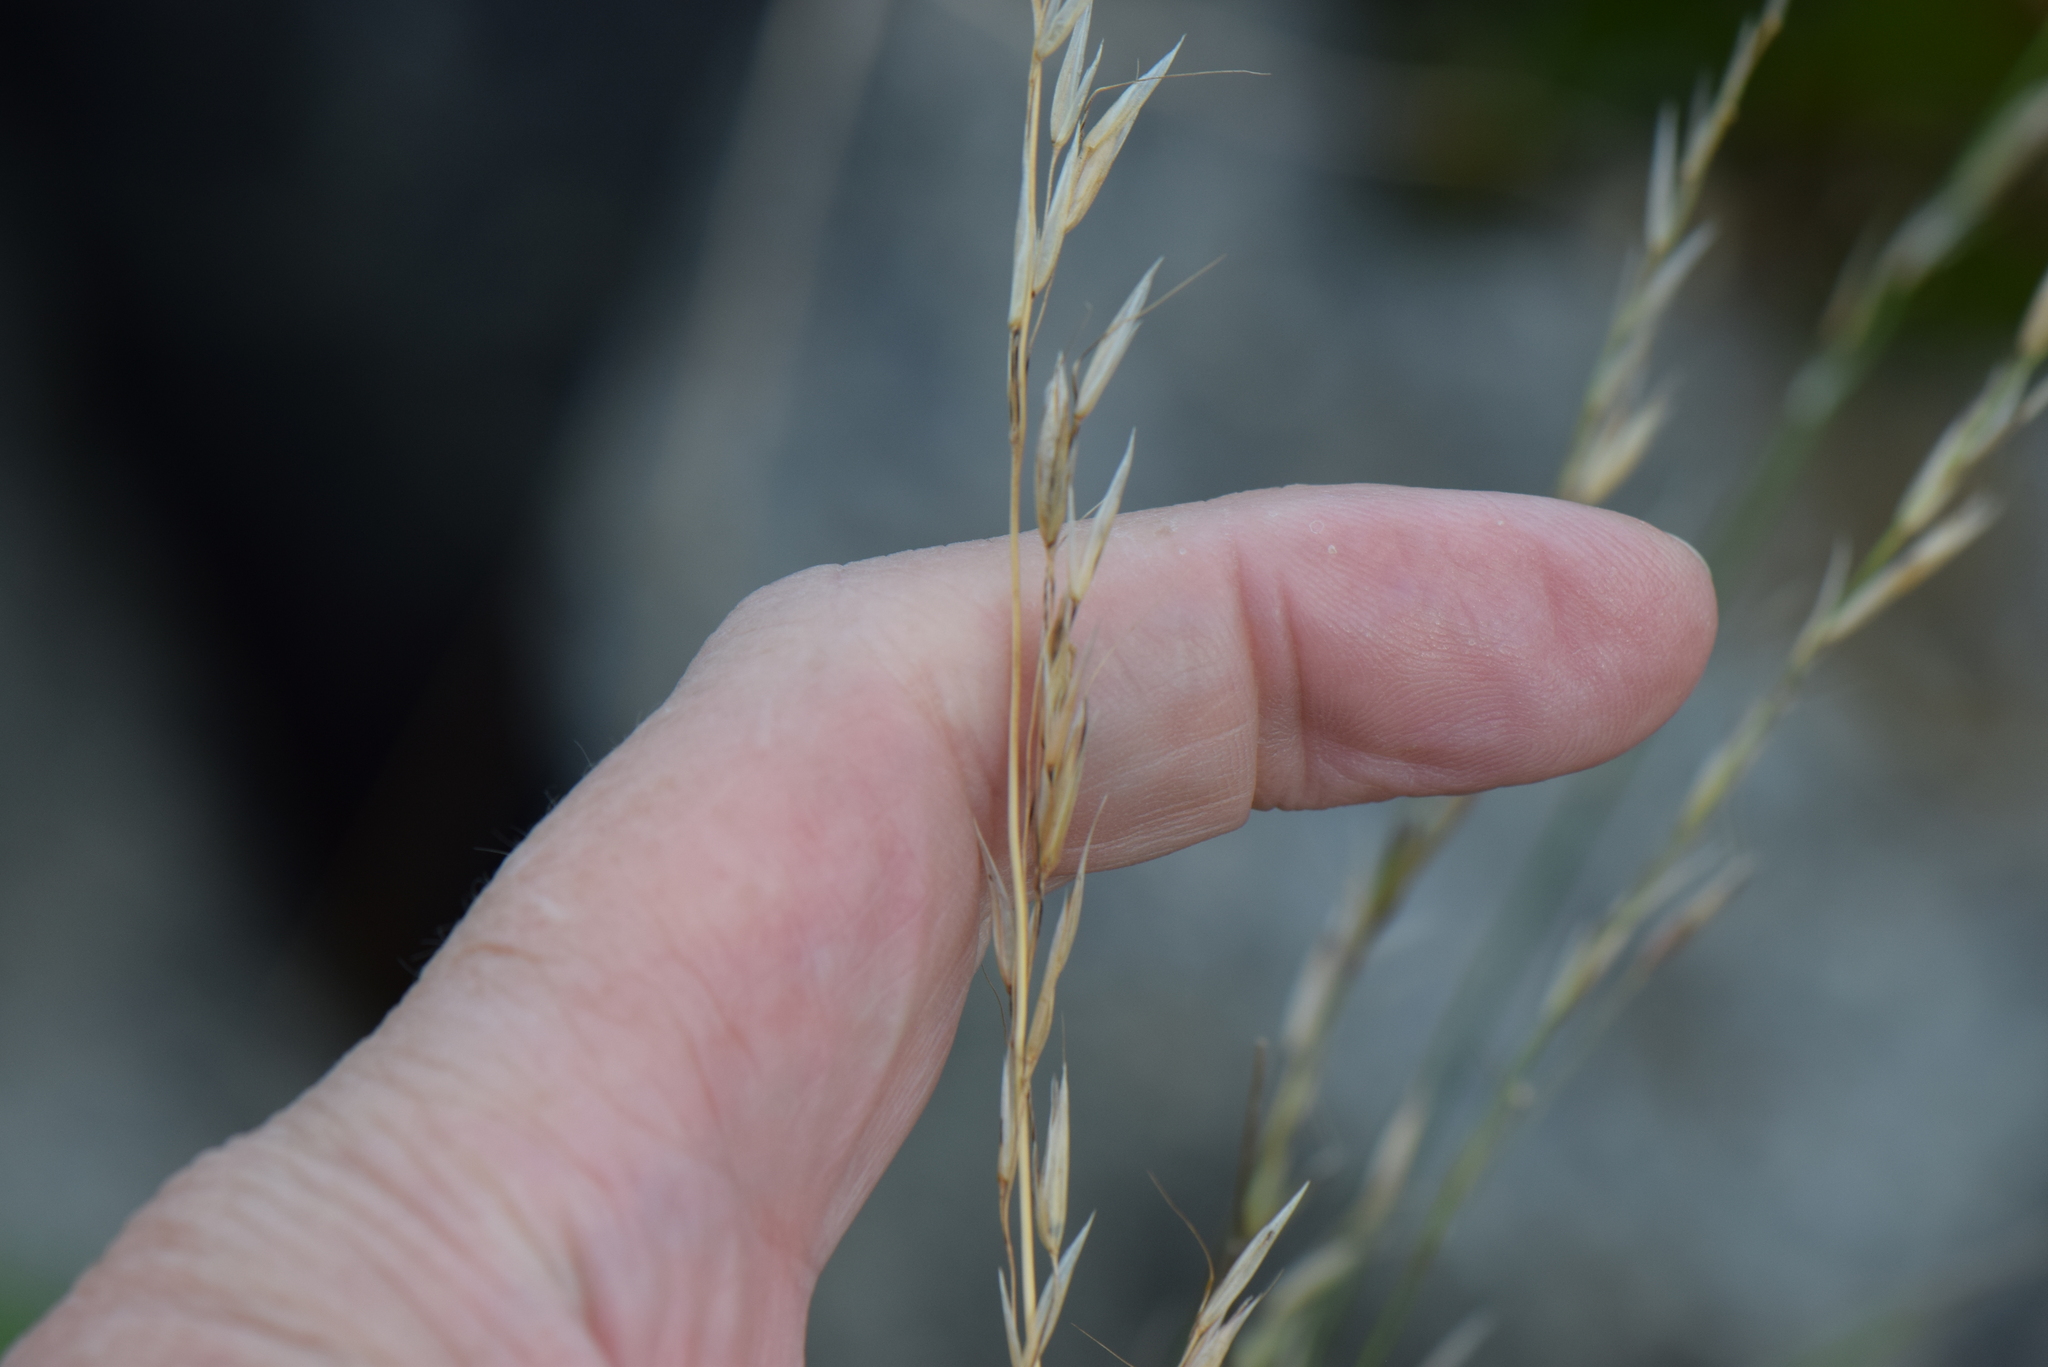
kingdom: Plantae
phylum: Tracheophyta
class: Liliopsida
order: Poales
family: Poaceae
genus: Arrhenatherum
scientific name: Arrhenatherum elatius
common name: Tall oatgrass
